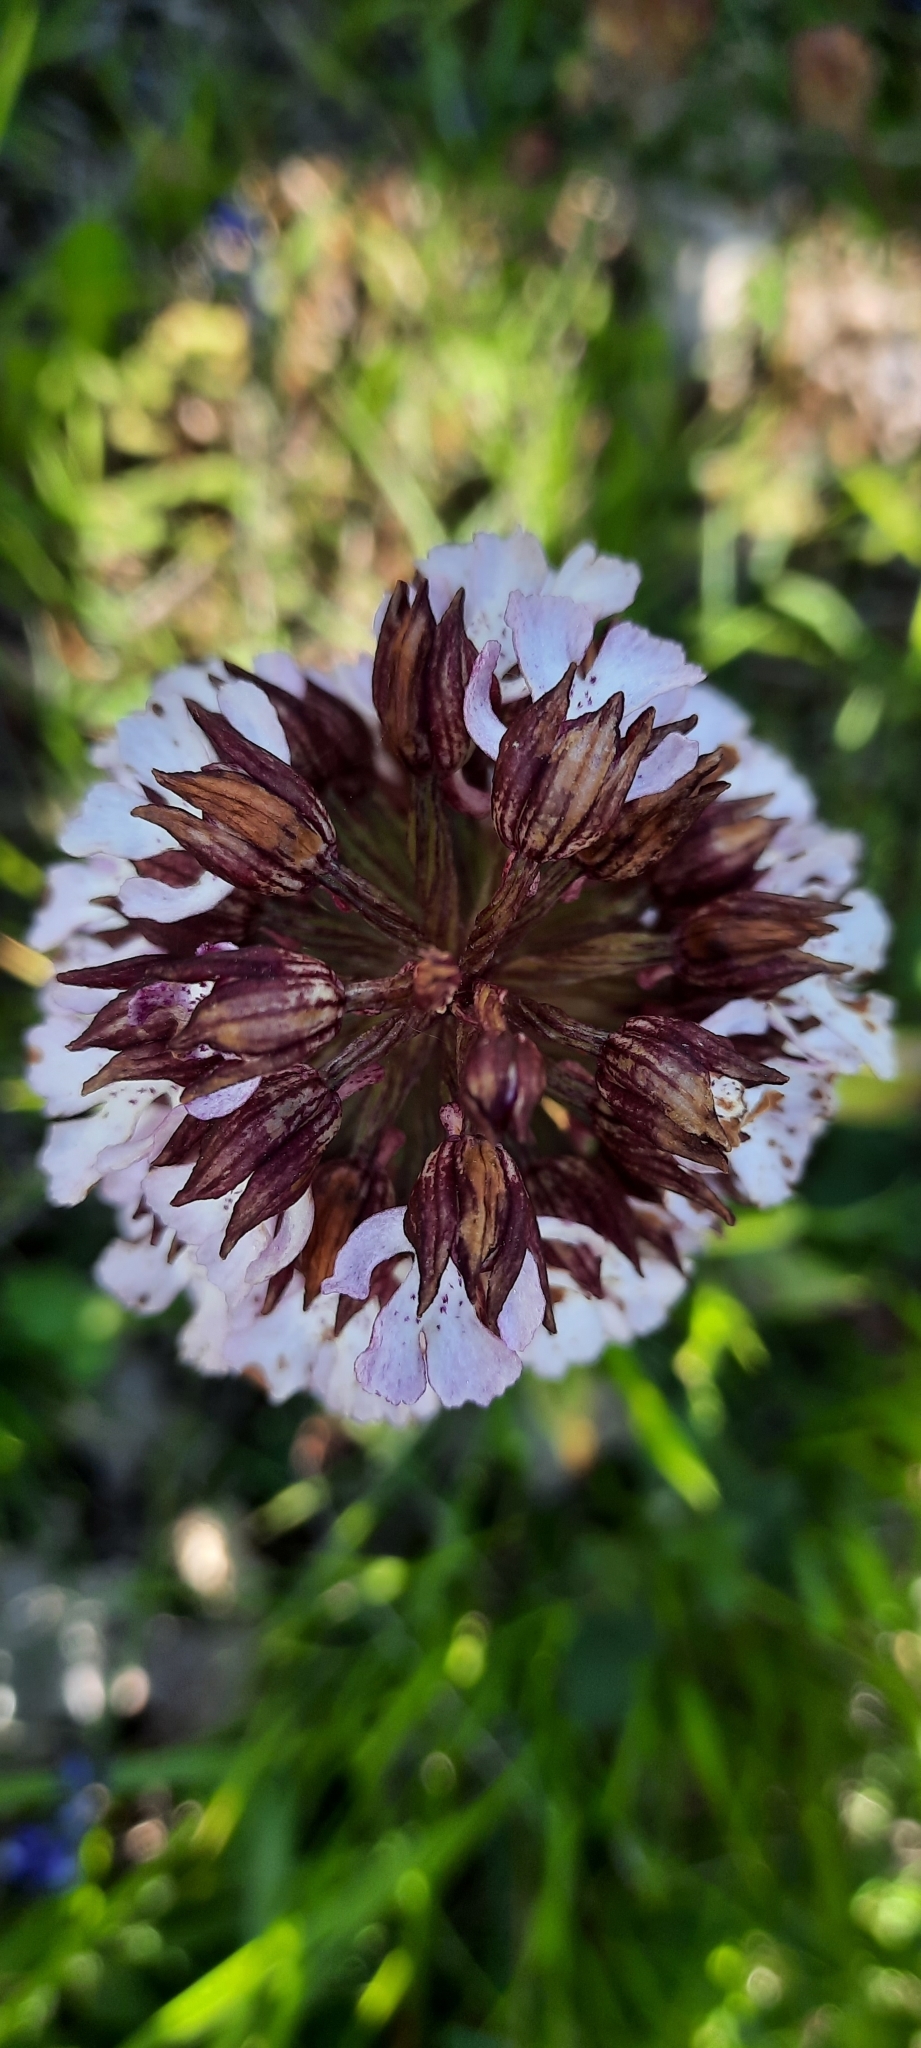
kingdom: Plantae
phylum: Tracheophyta
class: Liliopsida
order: Asparagales
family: Orchidaceae
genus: Orchis
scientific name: Orchis purpurea
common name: Lady orchid
